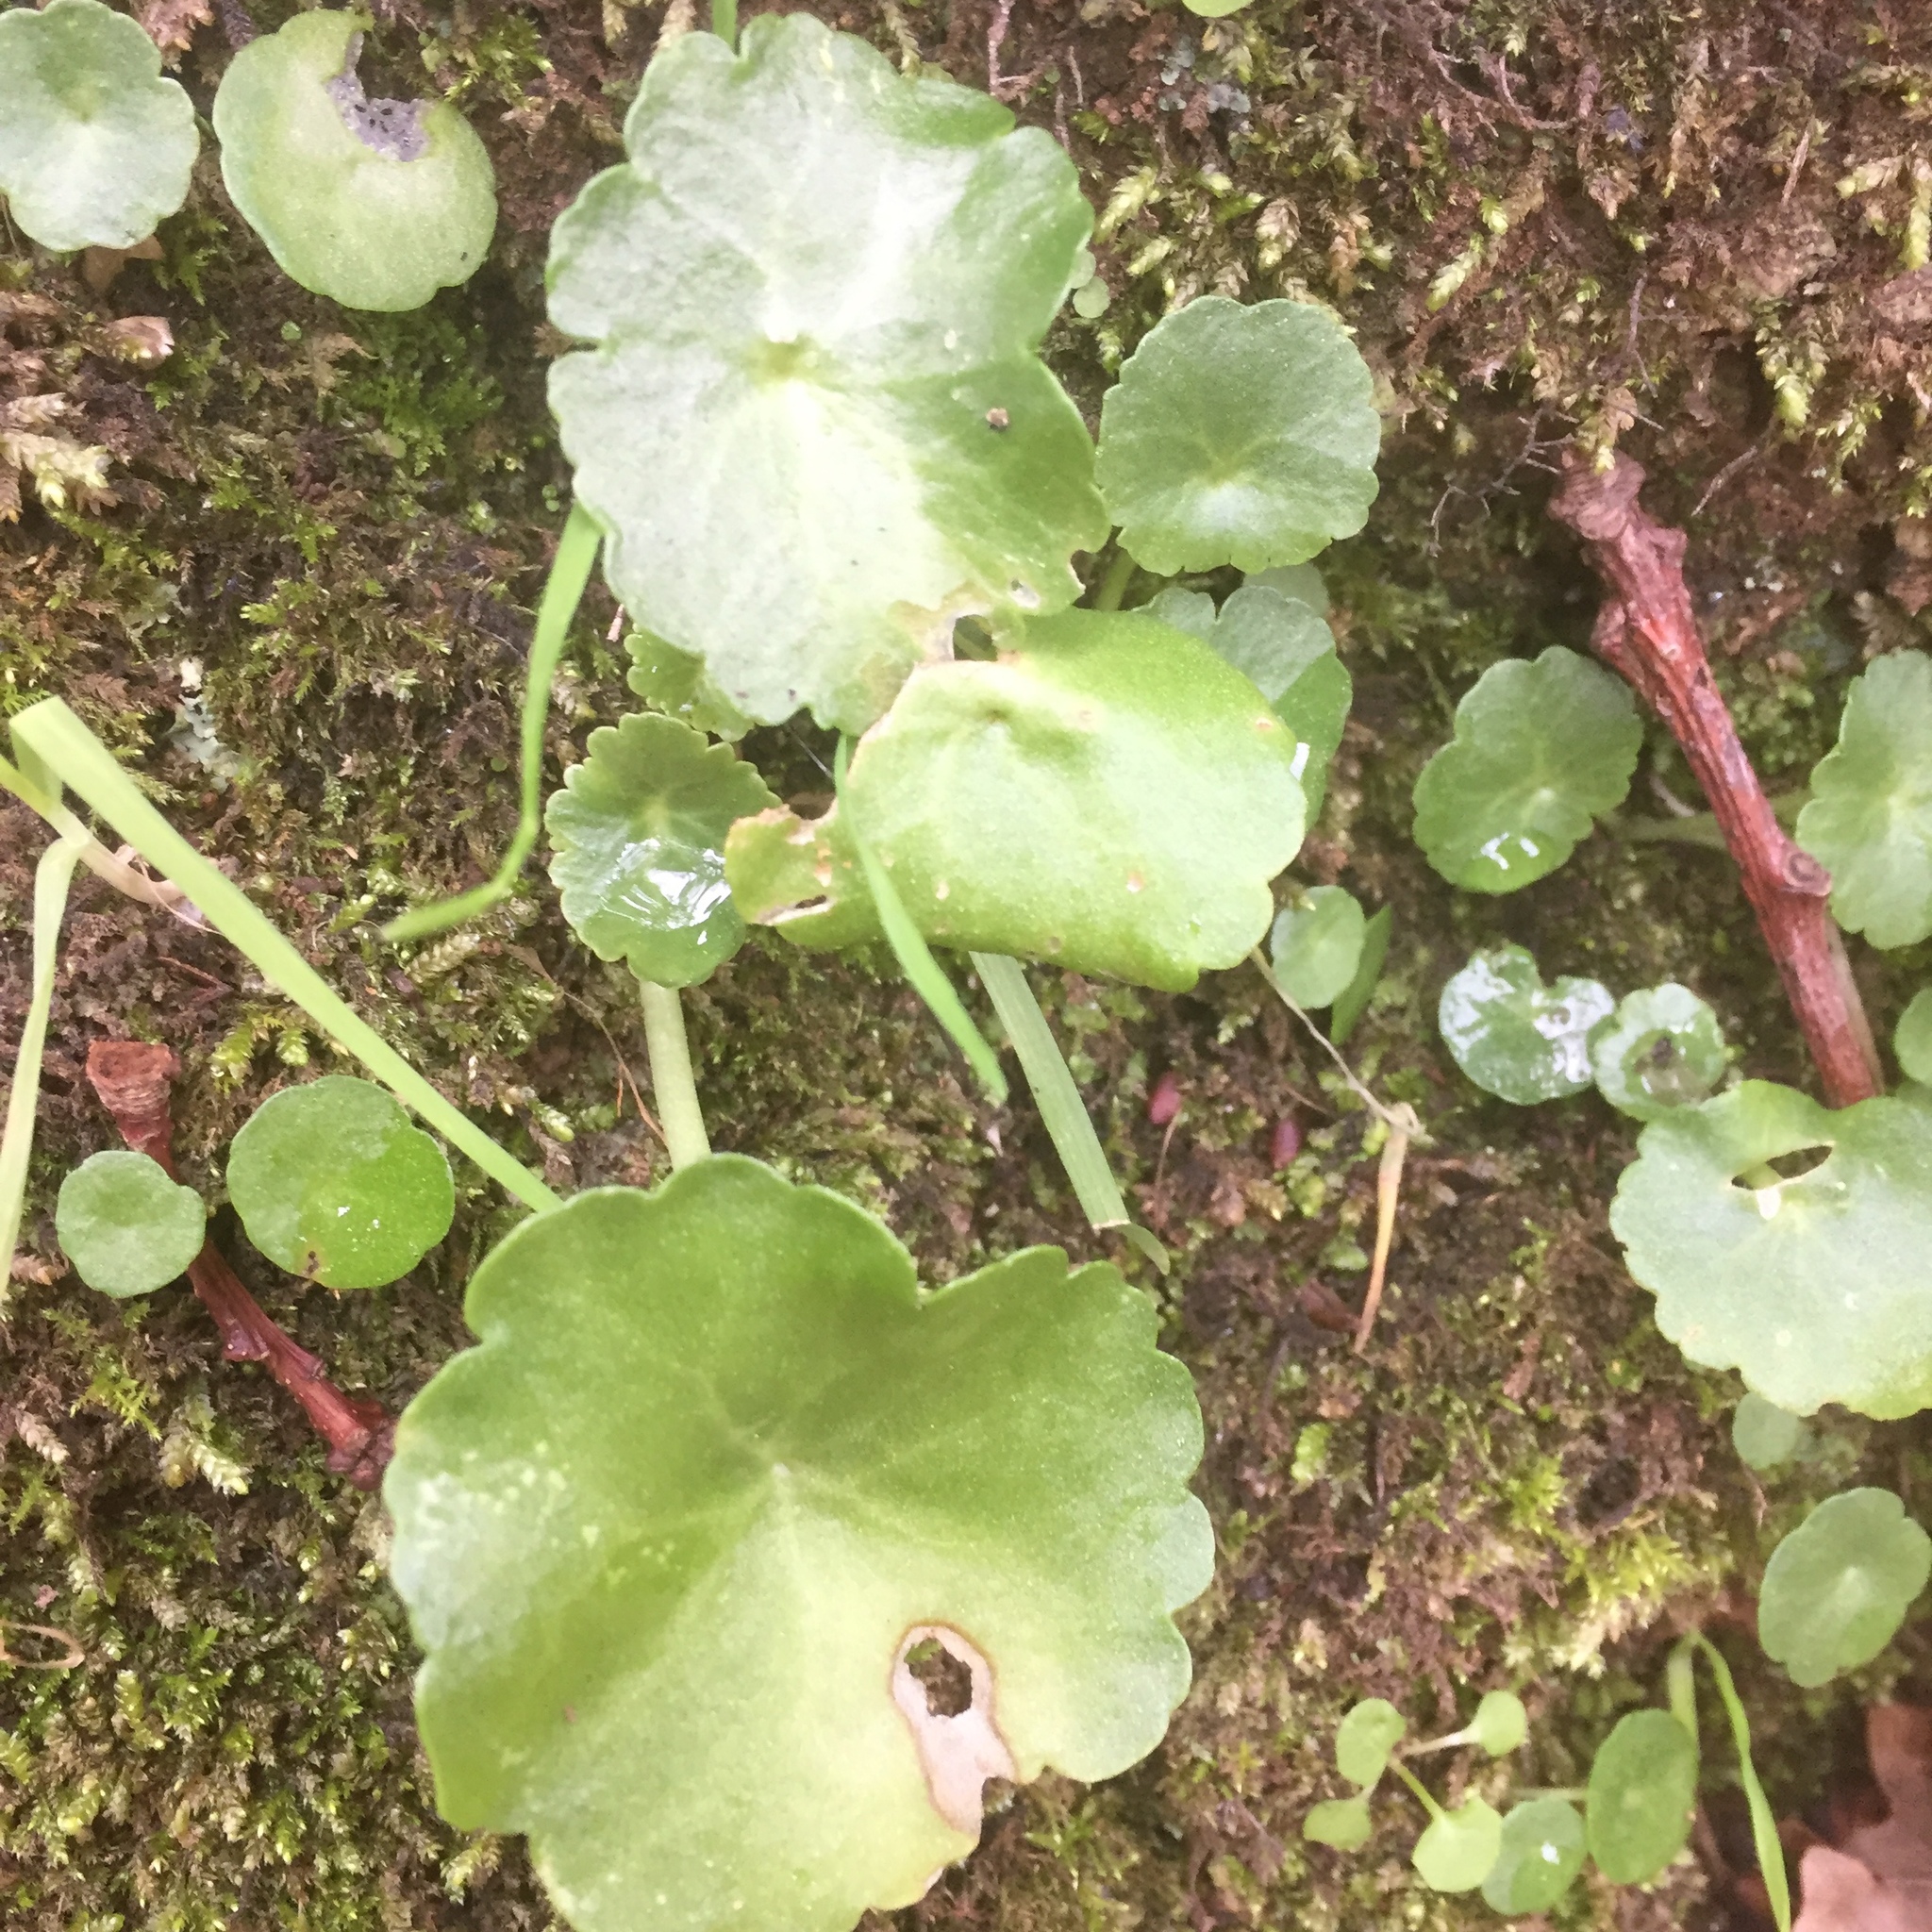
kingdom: Plantae
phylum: Tracheophyta
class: Magnoliopsida
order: Saxifragales
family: Crassulaceae
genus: Umbilicus
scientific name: Umbilicus rupestris
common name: Navelwort
